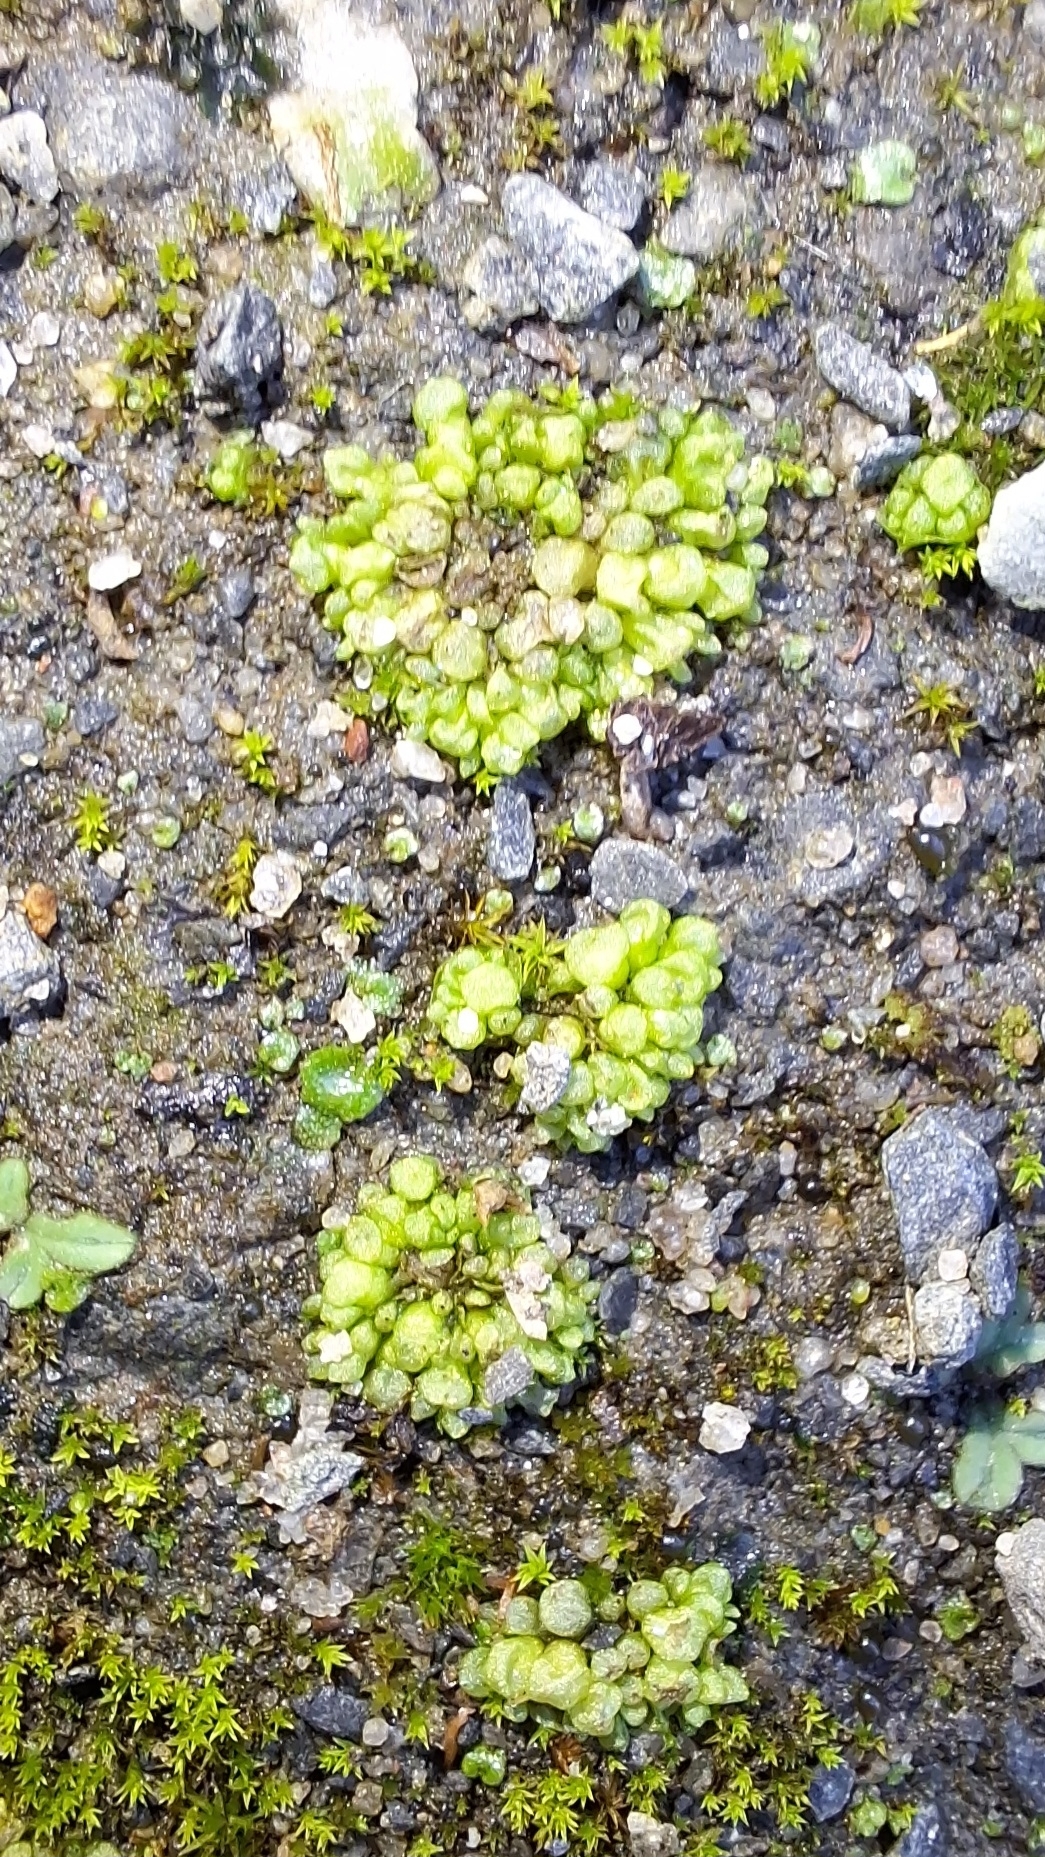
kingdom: Plantae
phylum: Marchantiophyta
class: Marchantiopsida
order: Sphaerocarpales
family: Sphaerocarpaceae
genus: Sphaerocarpos
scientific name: Sphaerocarpos texanus
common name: Texas balloonwort
